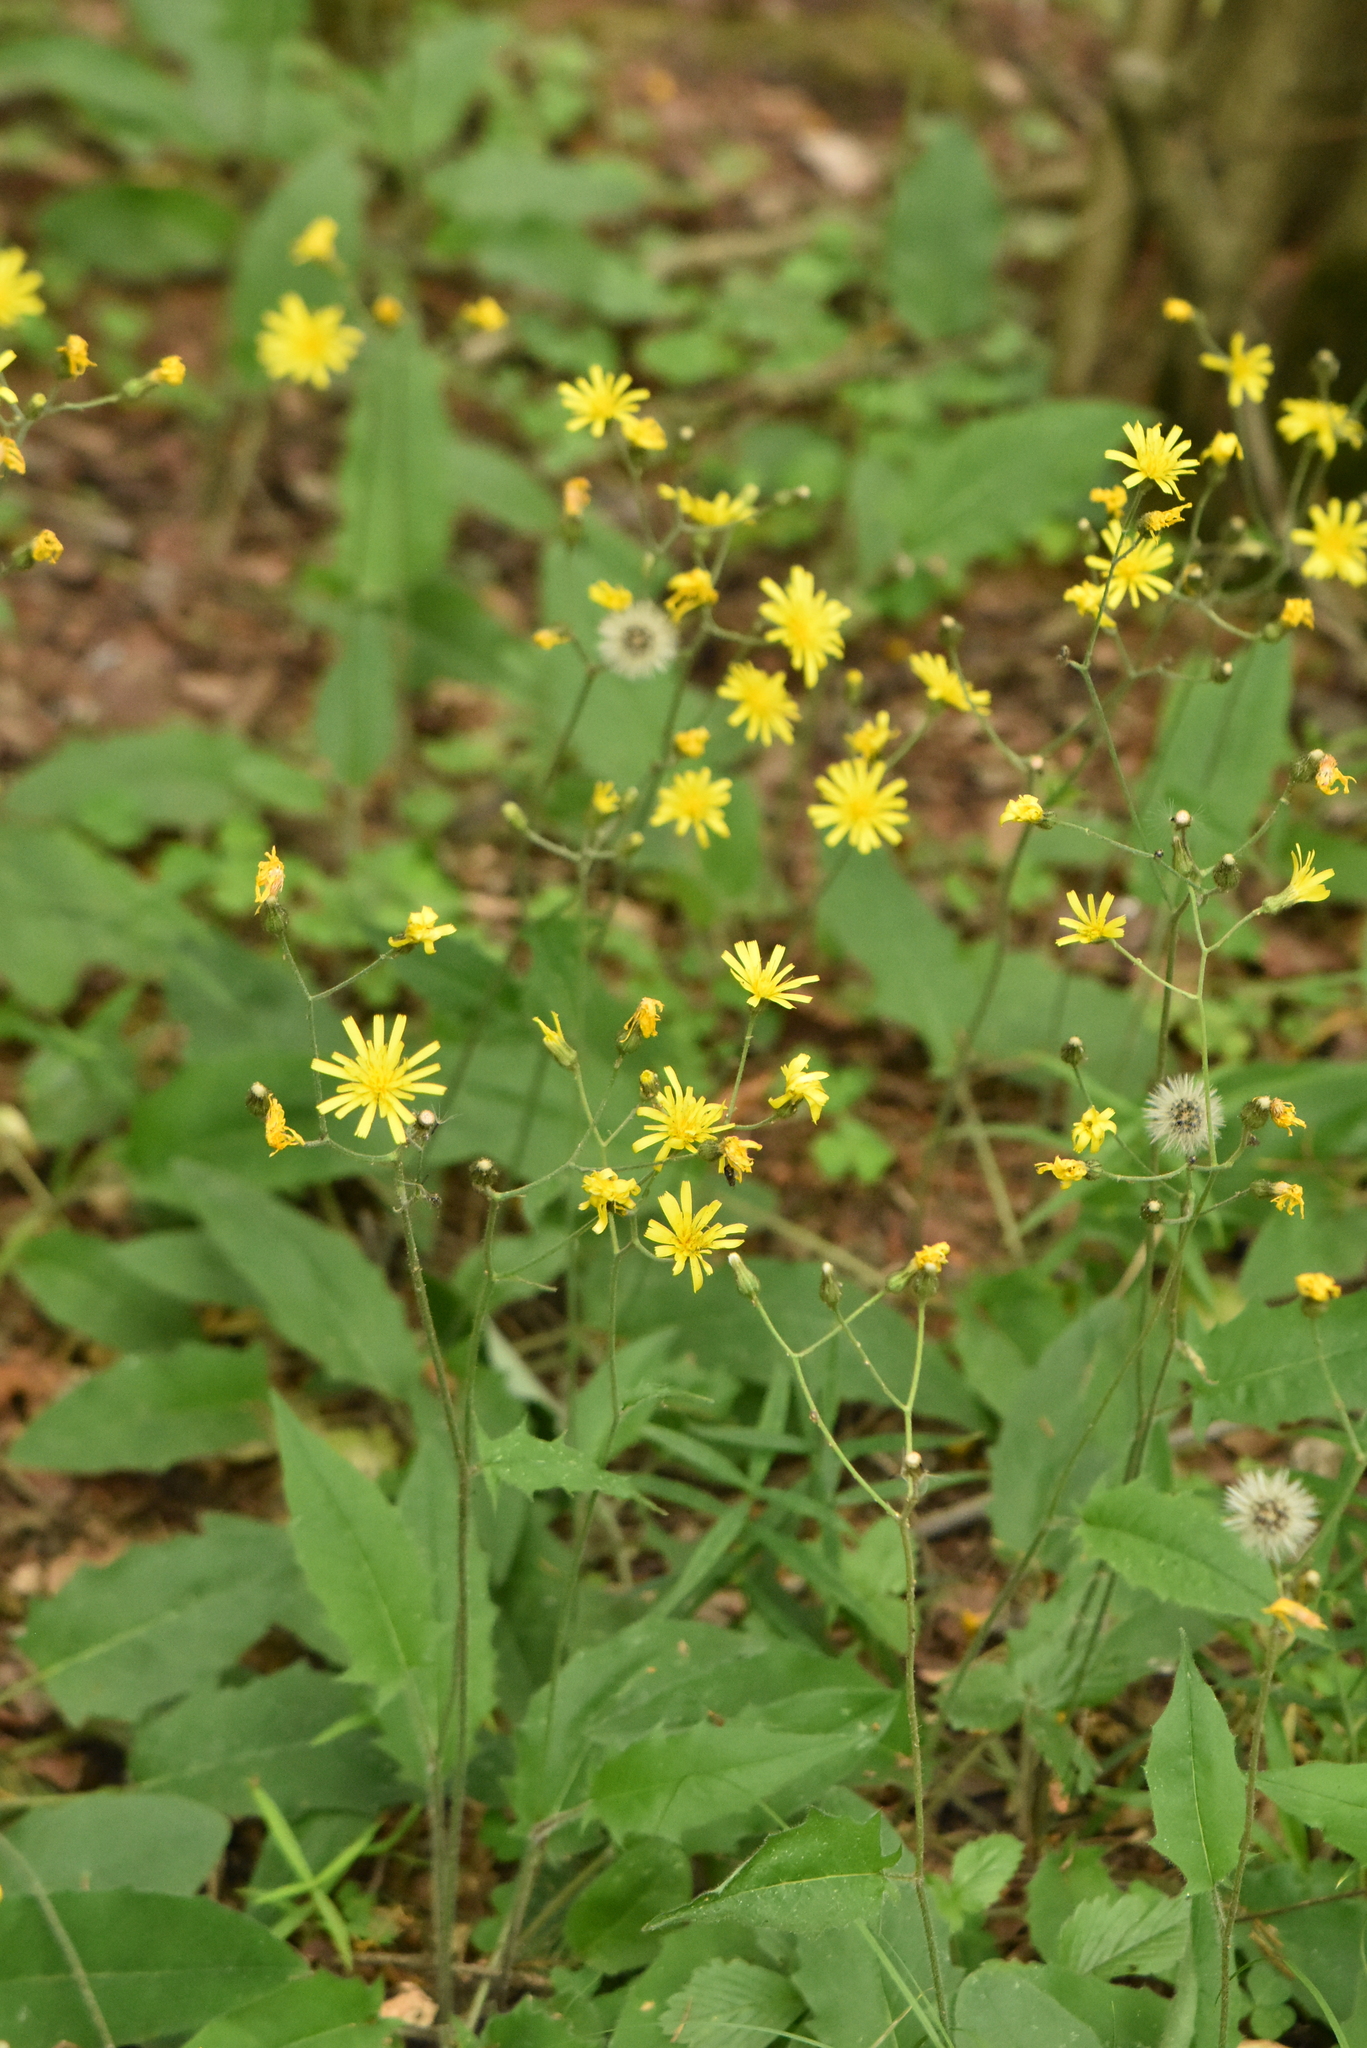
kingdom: Plantae
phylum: Tracheophyta
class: Magnoliopsida
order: Asterales
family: Asteraceae
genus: Hieracium
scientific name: Hieracium murorum
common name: Wall hawkweed
